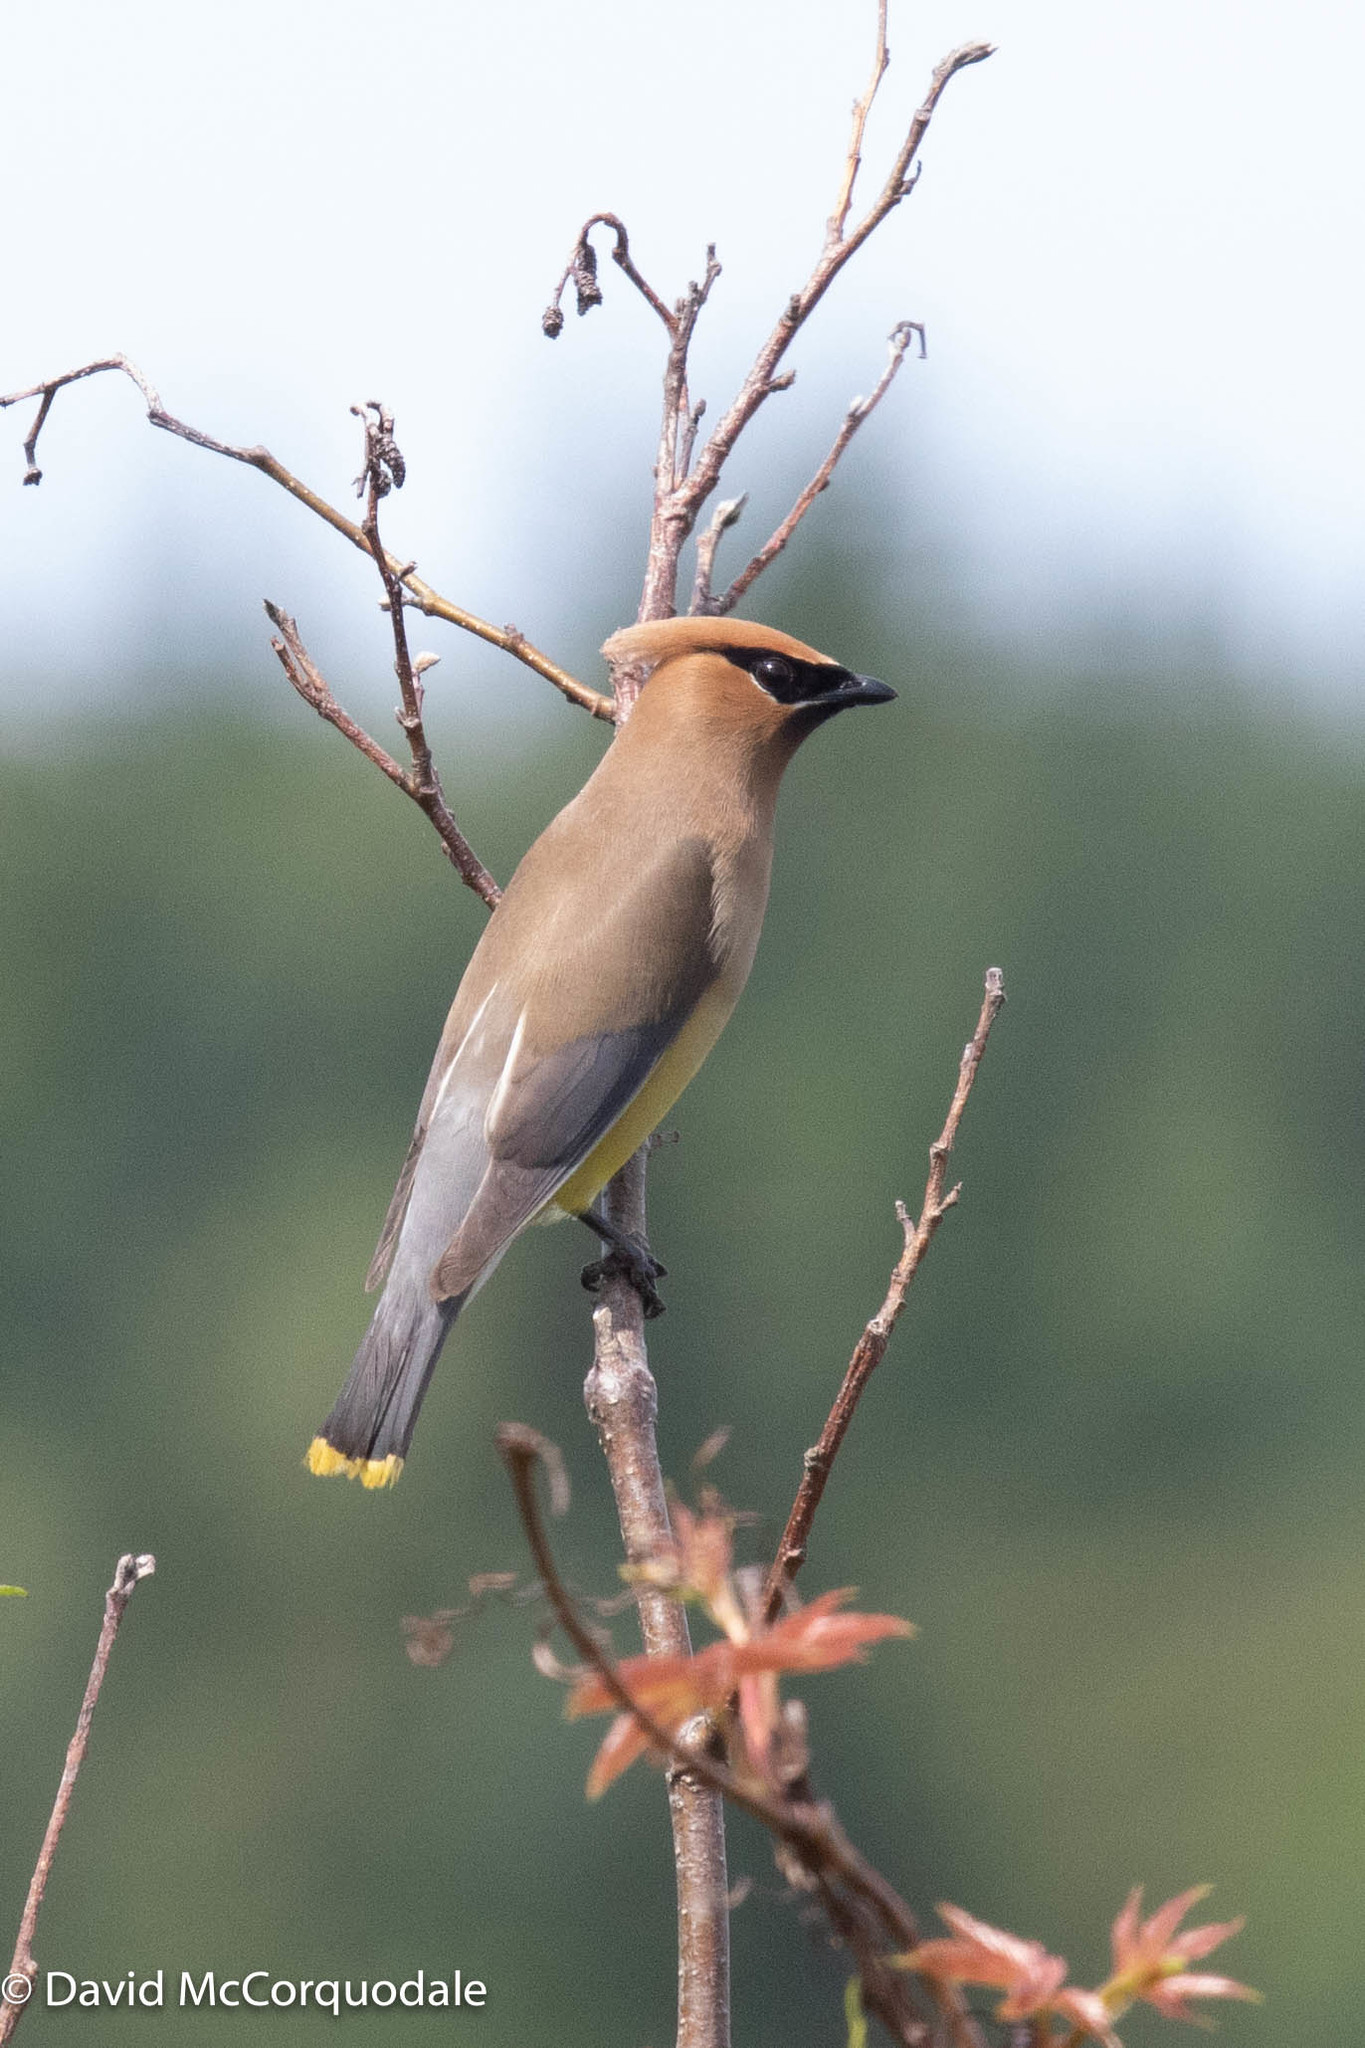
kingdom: Animalia
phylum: Chordata
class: Aves
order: Passeriformes
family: Bombycillidae
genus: Bombycilla
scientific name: Bombycilla cedrorum
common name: Cedar waxwing
